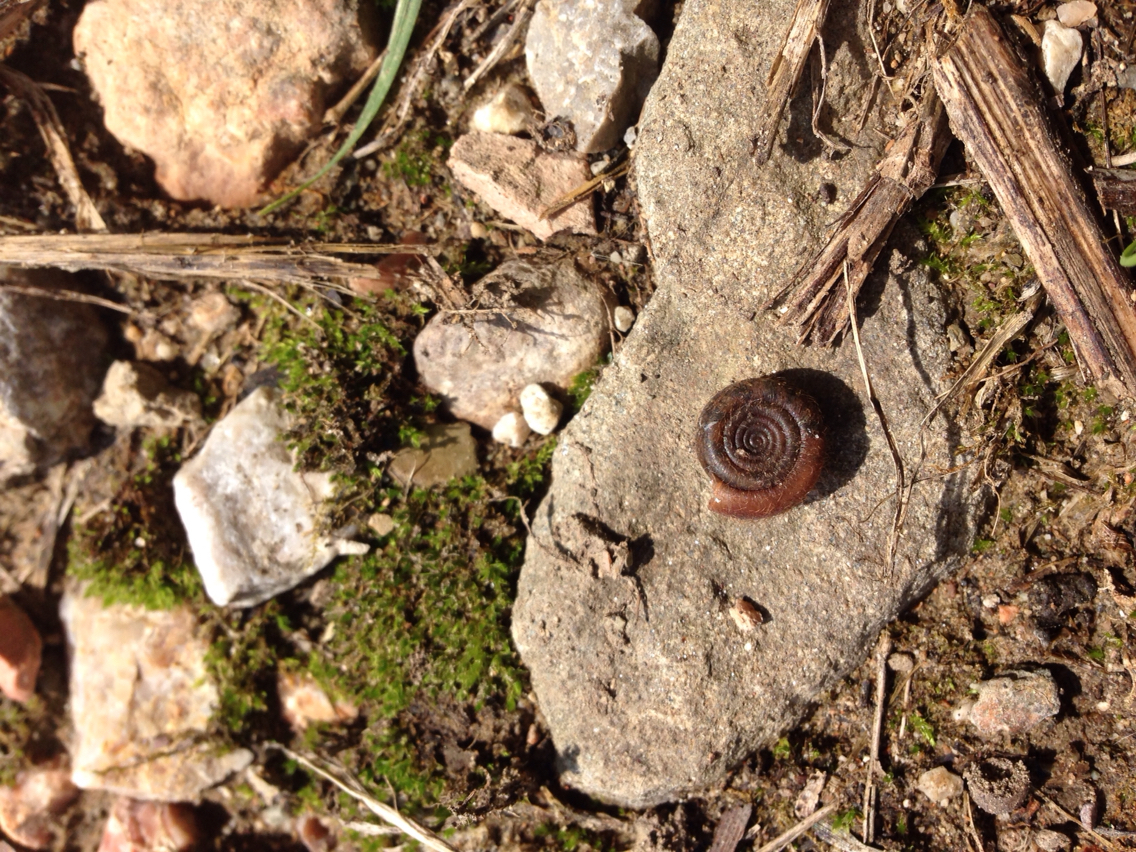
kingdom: Animalia
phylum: Mollusca
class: Gastropoda
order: Stylommatophora
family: Helicodontidae
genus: Helicodonta
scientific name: Helicodonta obvoluta
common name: Cheese snail
